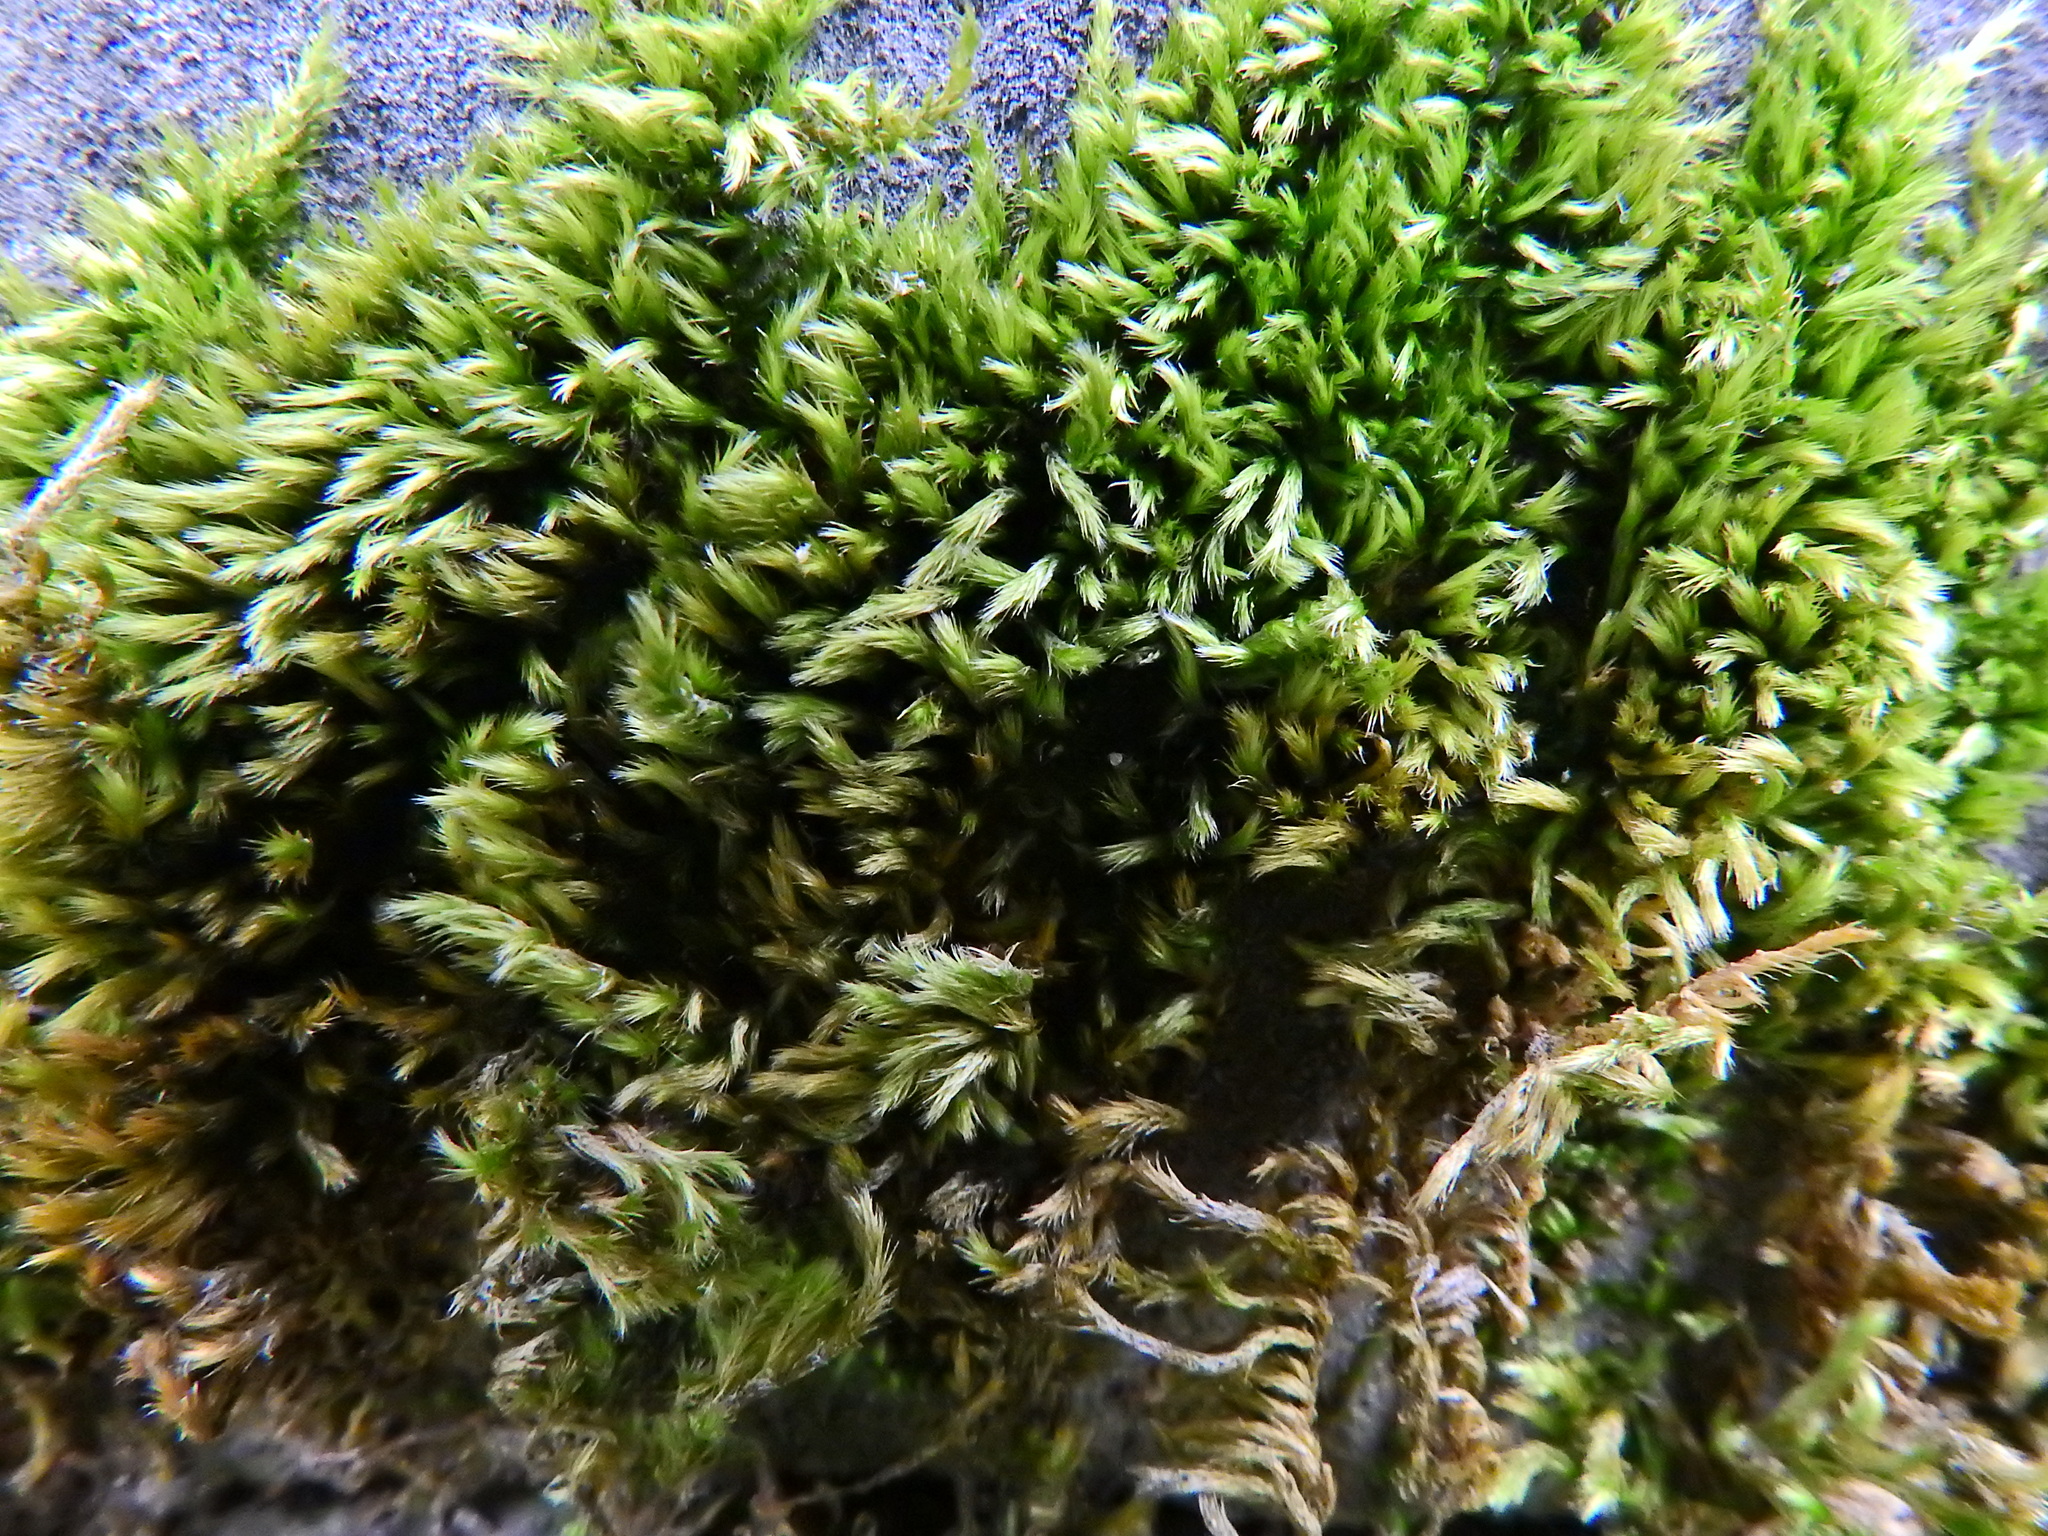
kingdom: Plantae
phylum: Bryophyta
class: Bryopsida
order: Hypnales
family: Brachytheciaceae
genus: Homalothecium
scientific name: Homalothecium sericeum
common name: Silky wall feather-moss
